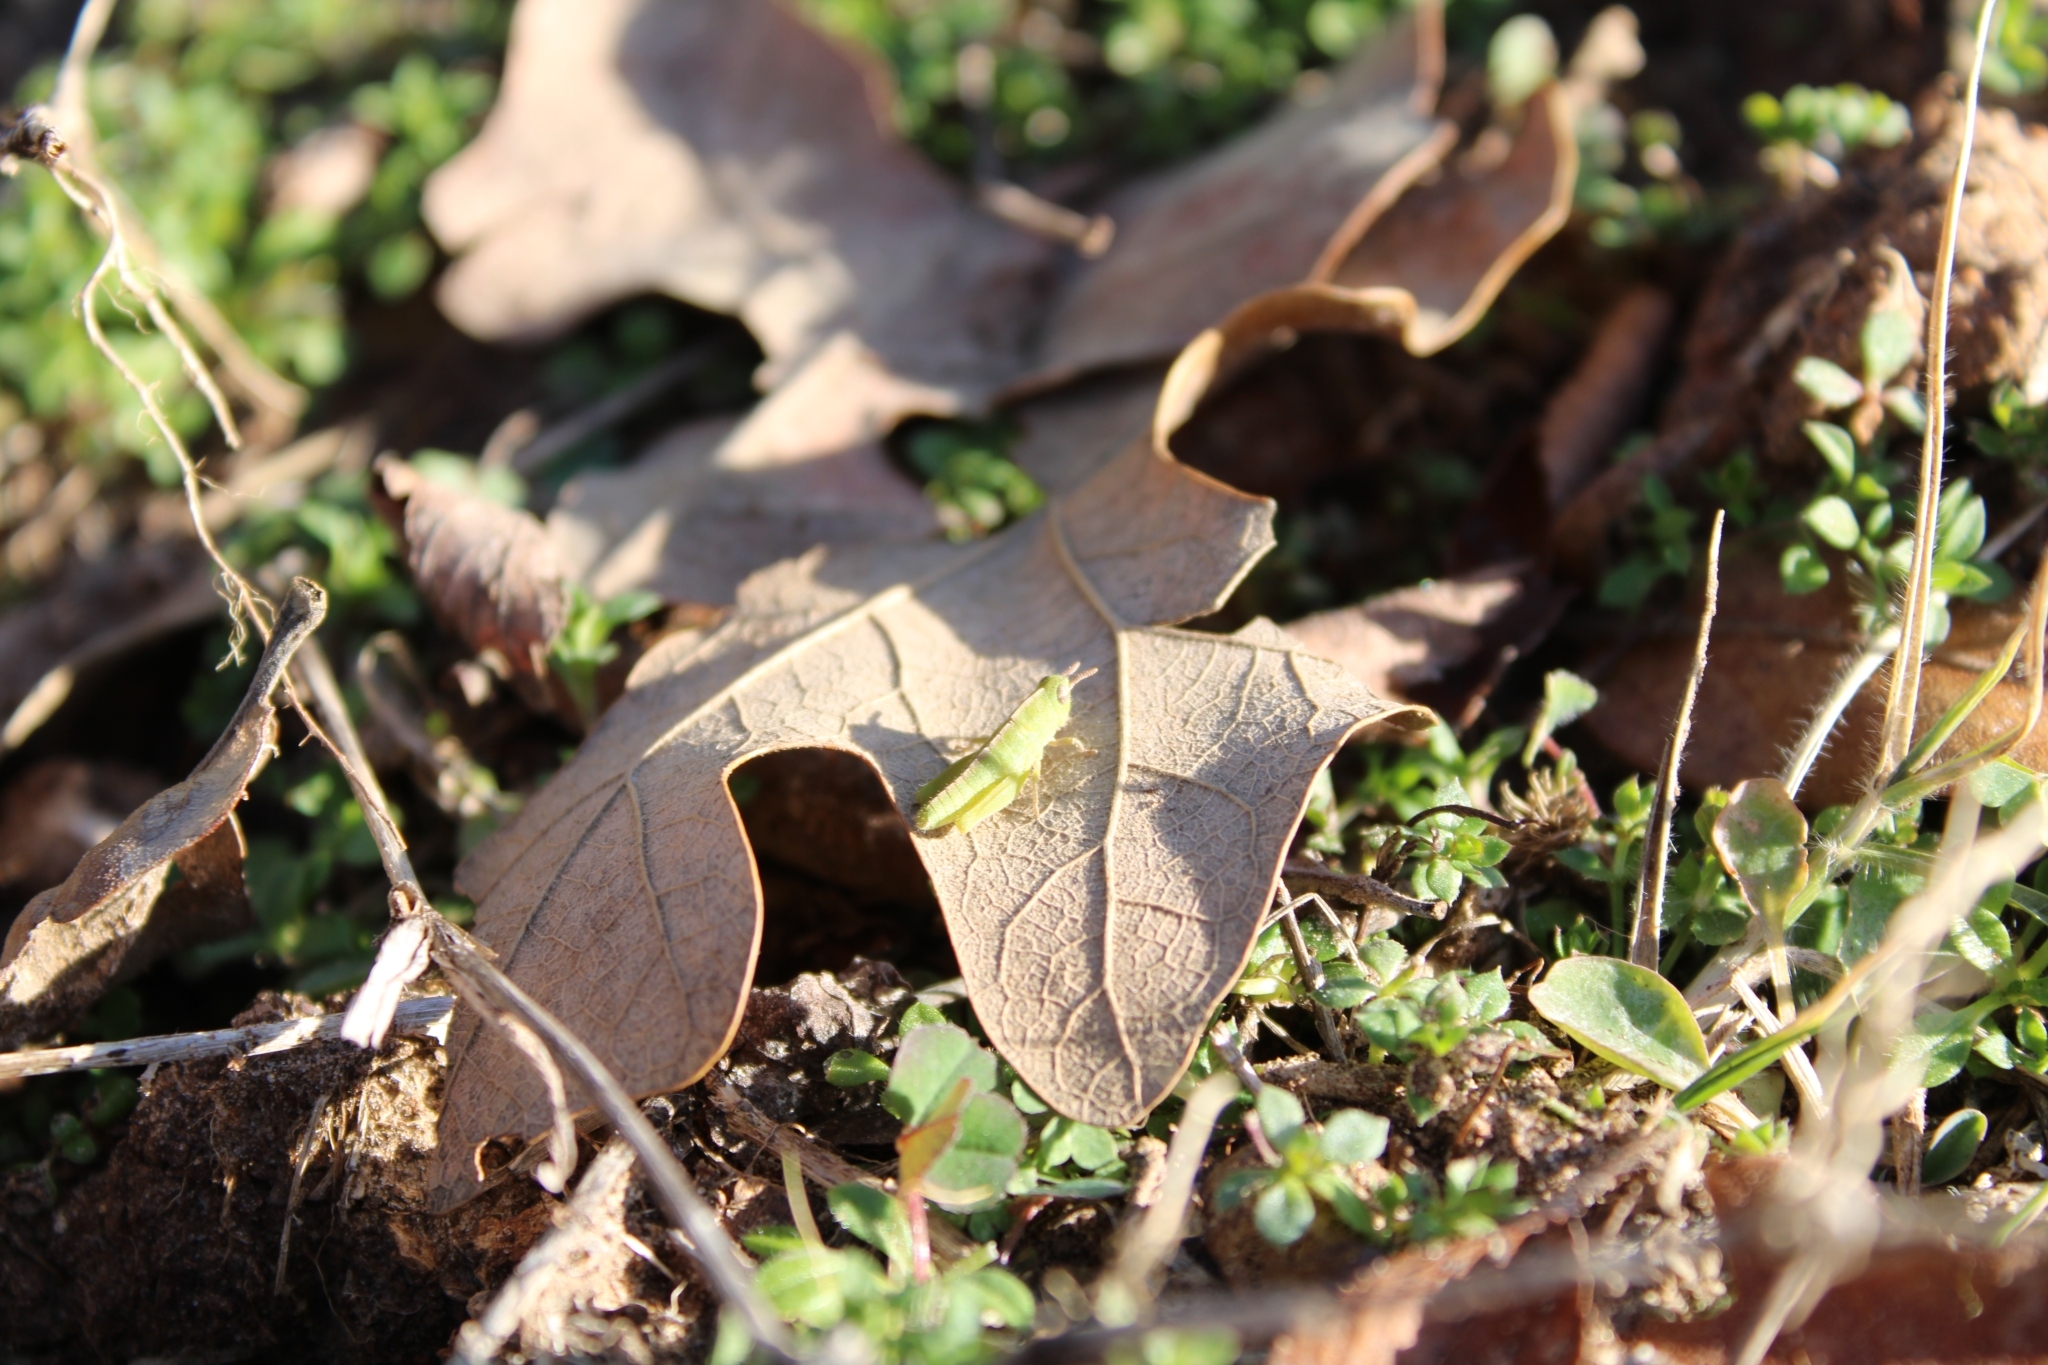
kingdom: Animalia
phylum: Arthropoda
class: Insecta
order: Orthoptera
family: Acrididae
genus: Chortophaga
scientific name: Chortophaga viridifasciata
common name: Green-striped grasshopper
